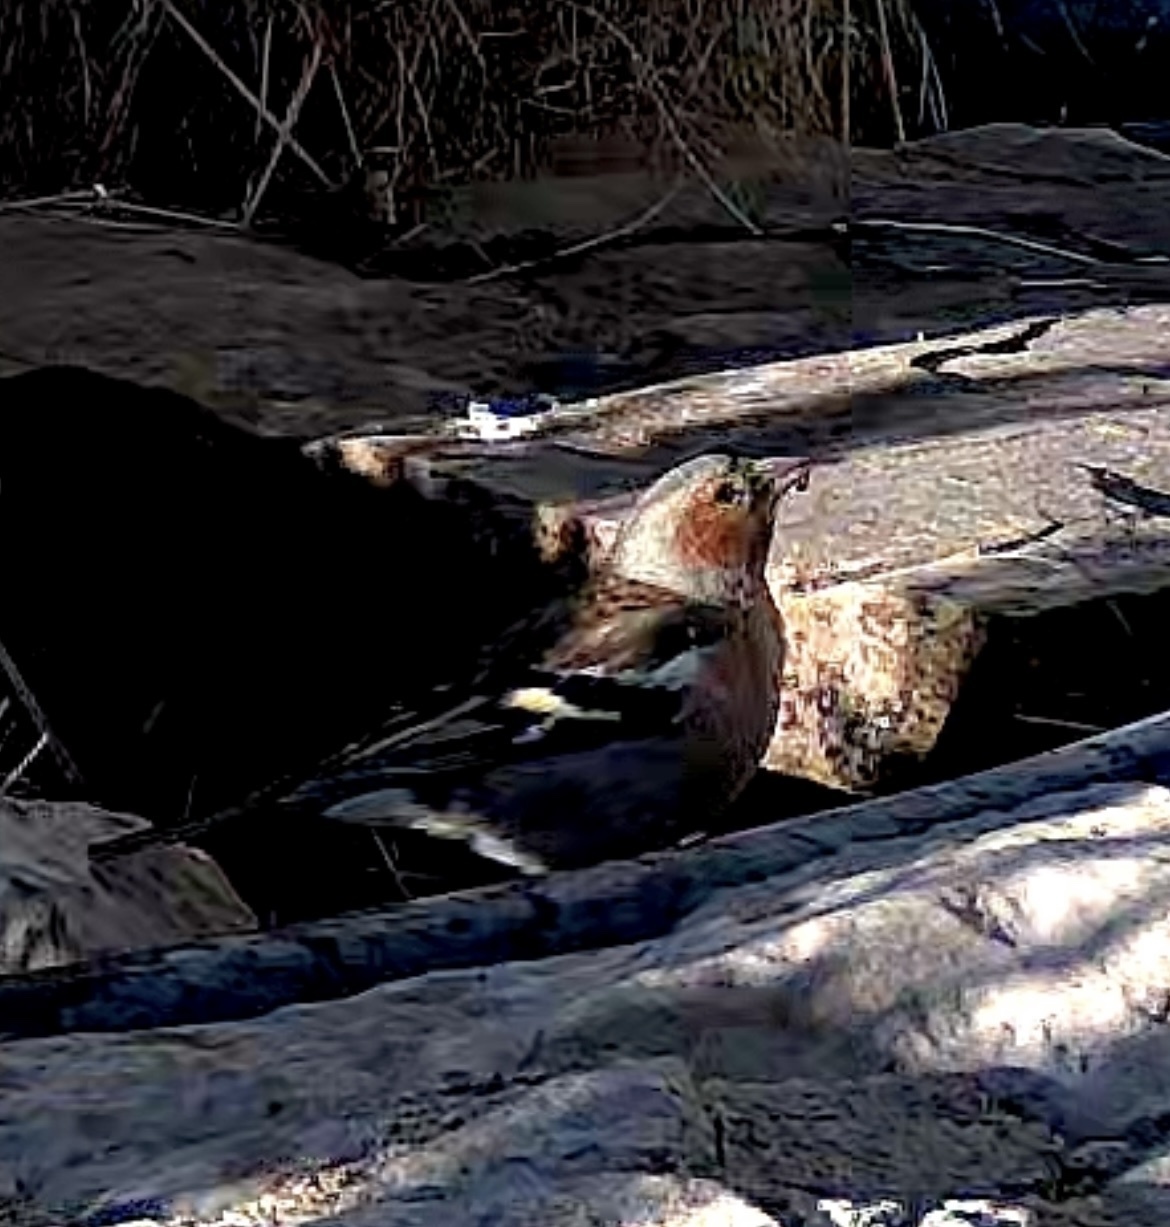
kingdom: Animalia
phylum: Chordata
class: Aves
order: Passeriformes
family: Fringillidae
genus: Fringilla
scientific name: Fringilla coelebs
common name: Common chaffinch
